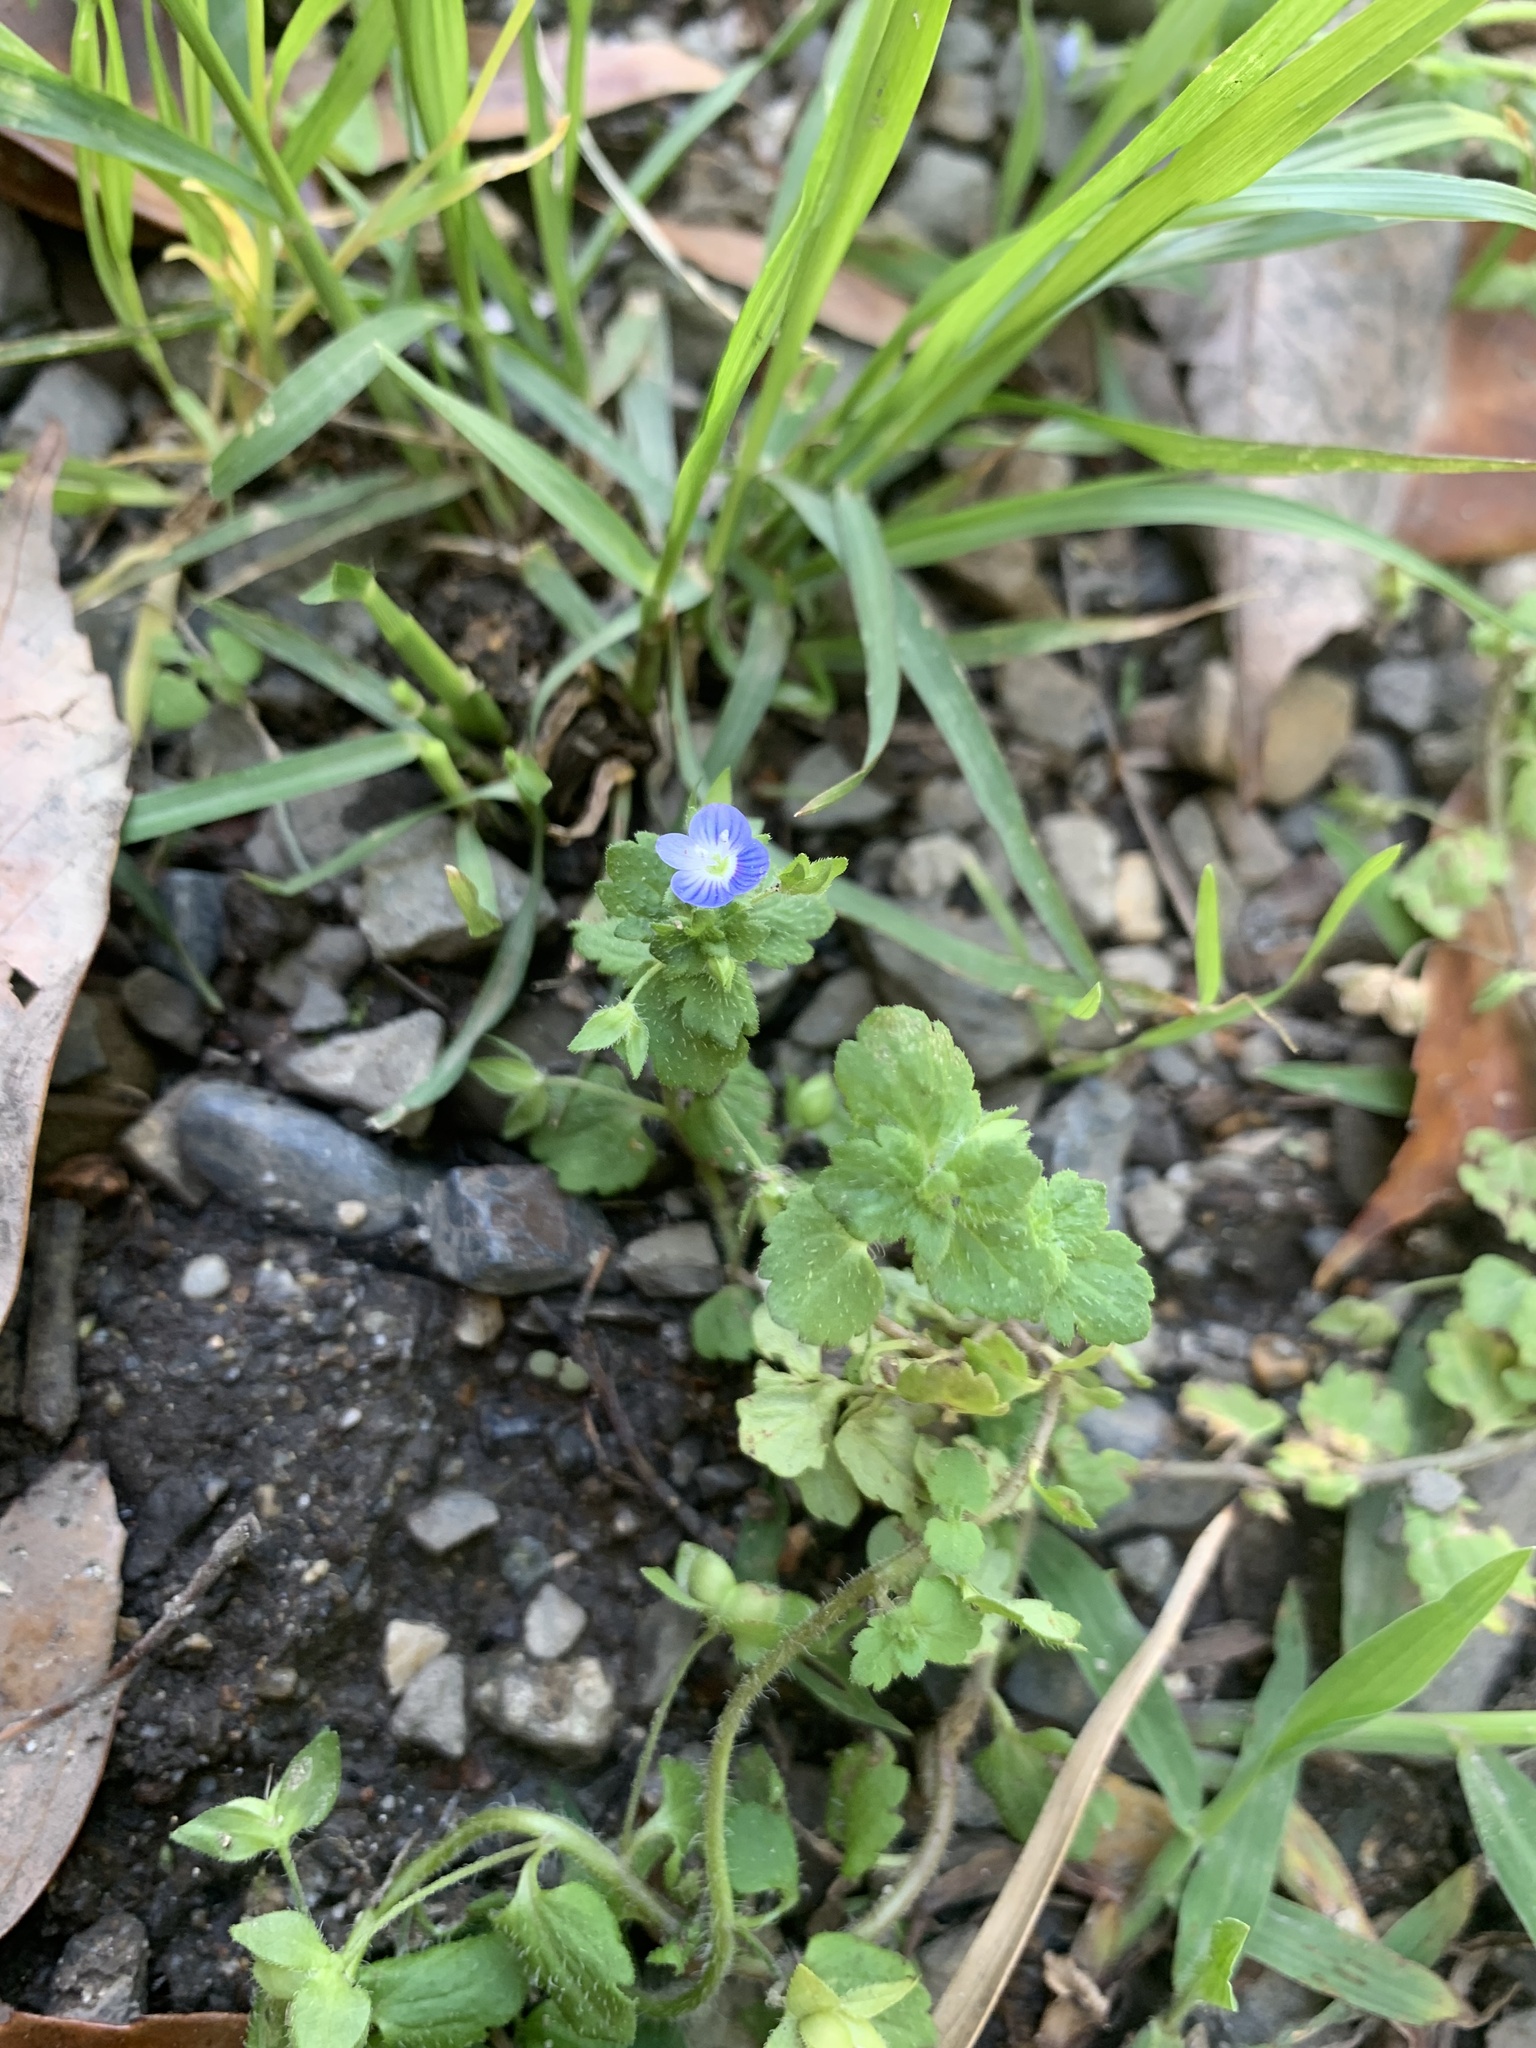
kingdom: Plantae
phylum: Tracheophyta
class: Magnoliopsida
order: Lamiales
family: Plantaginaceae
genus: Veronica
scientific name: Veronica persica
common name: Common field-speedwell
